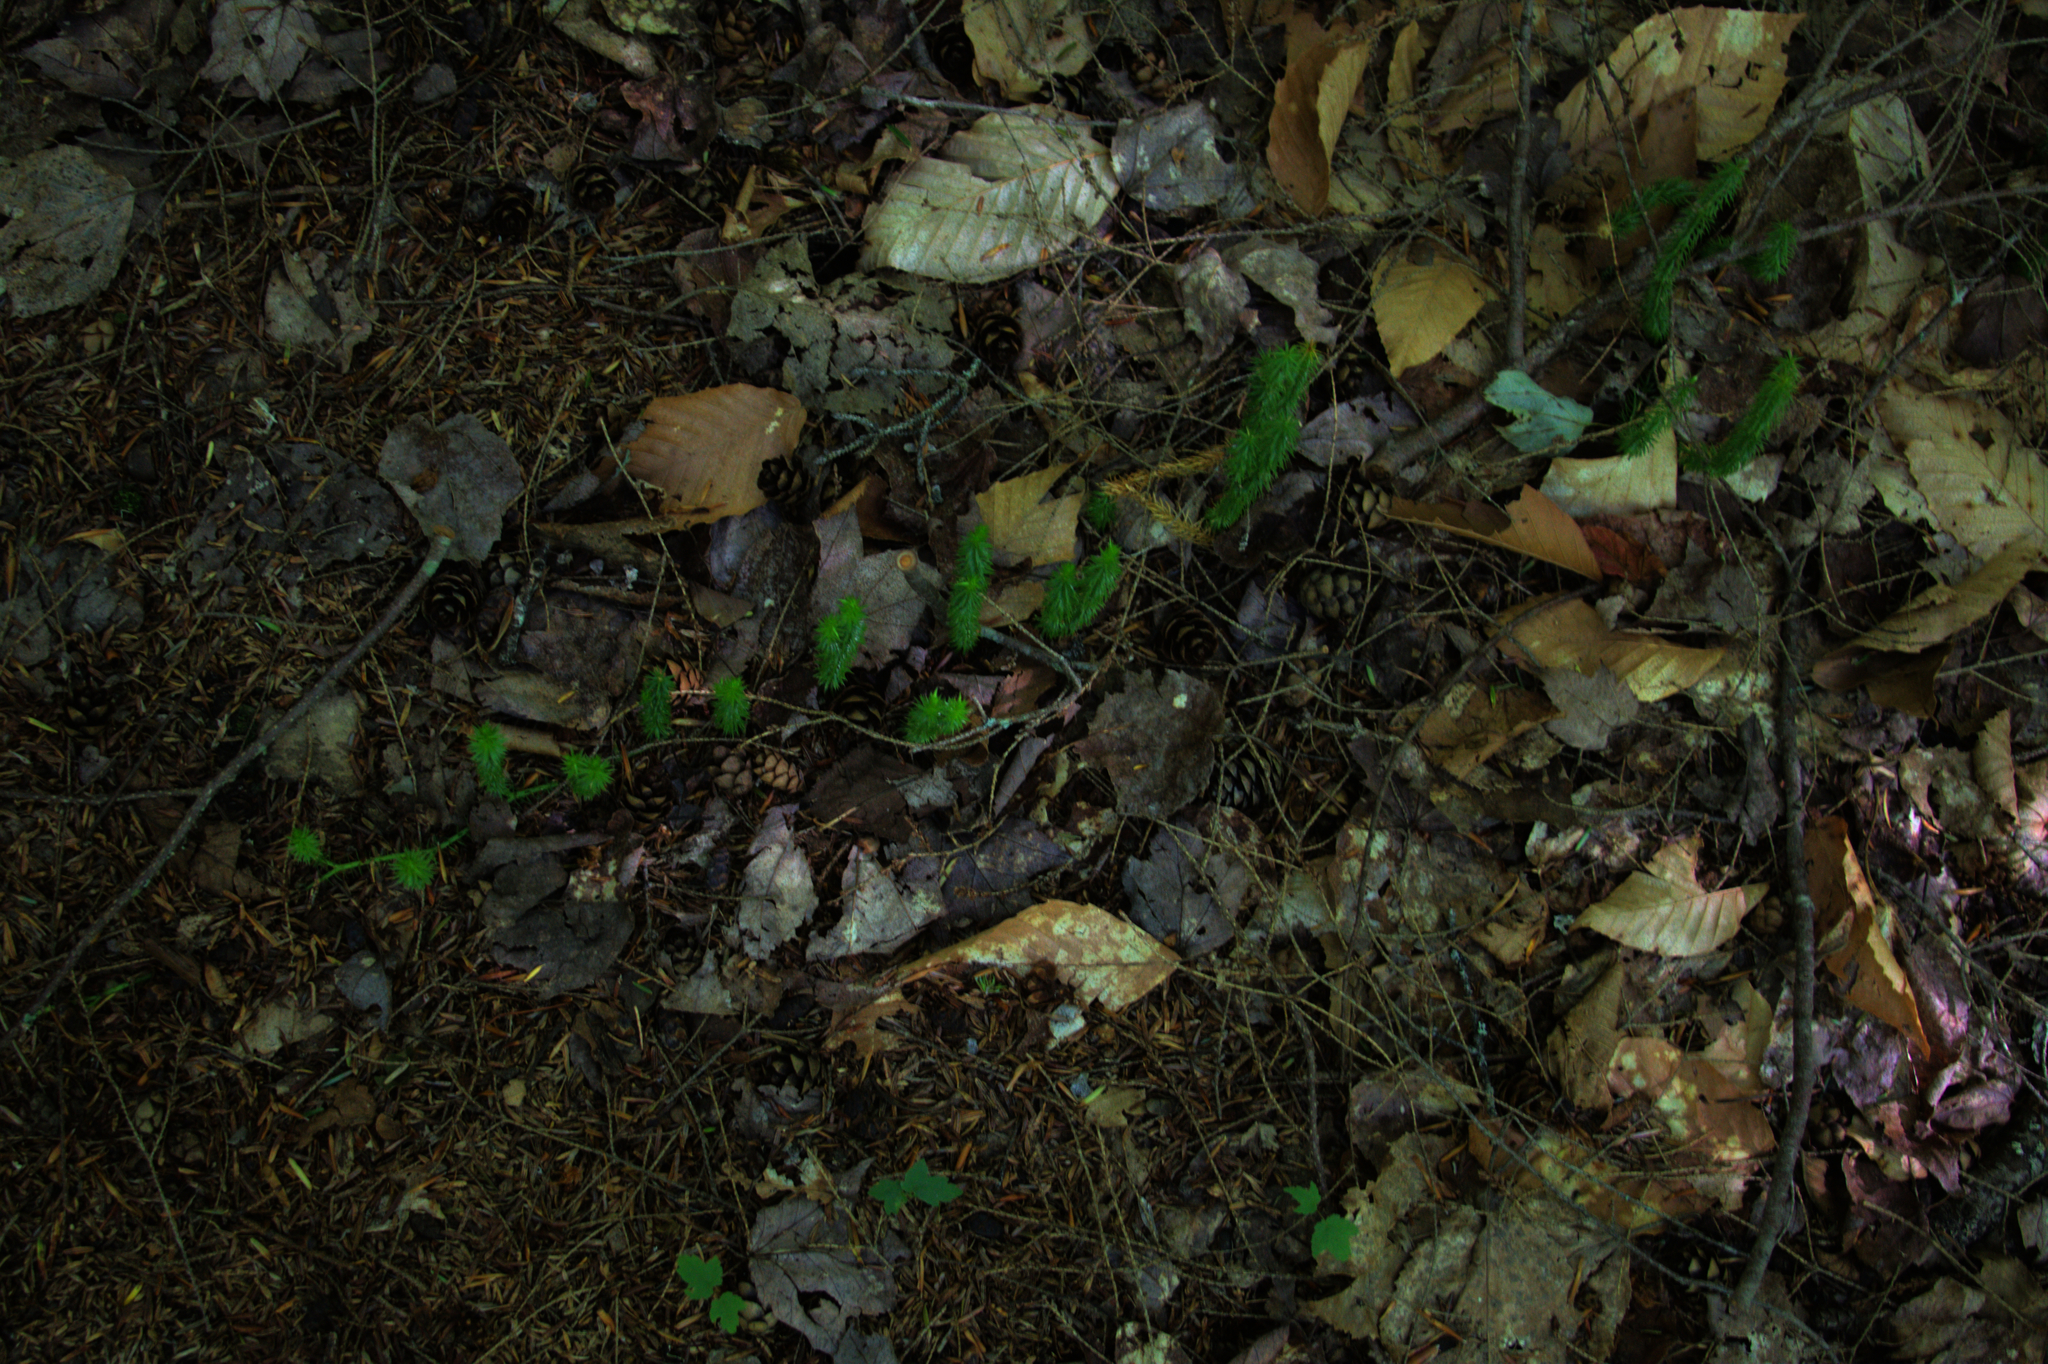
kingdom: Plantae
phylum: Tracheophyta
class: Lycopodiopsida
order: Lycopodiales
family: Lycopodiaceae
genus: Spinulum
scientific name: Spinulum annotinum
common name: Interrupted club-moss
